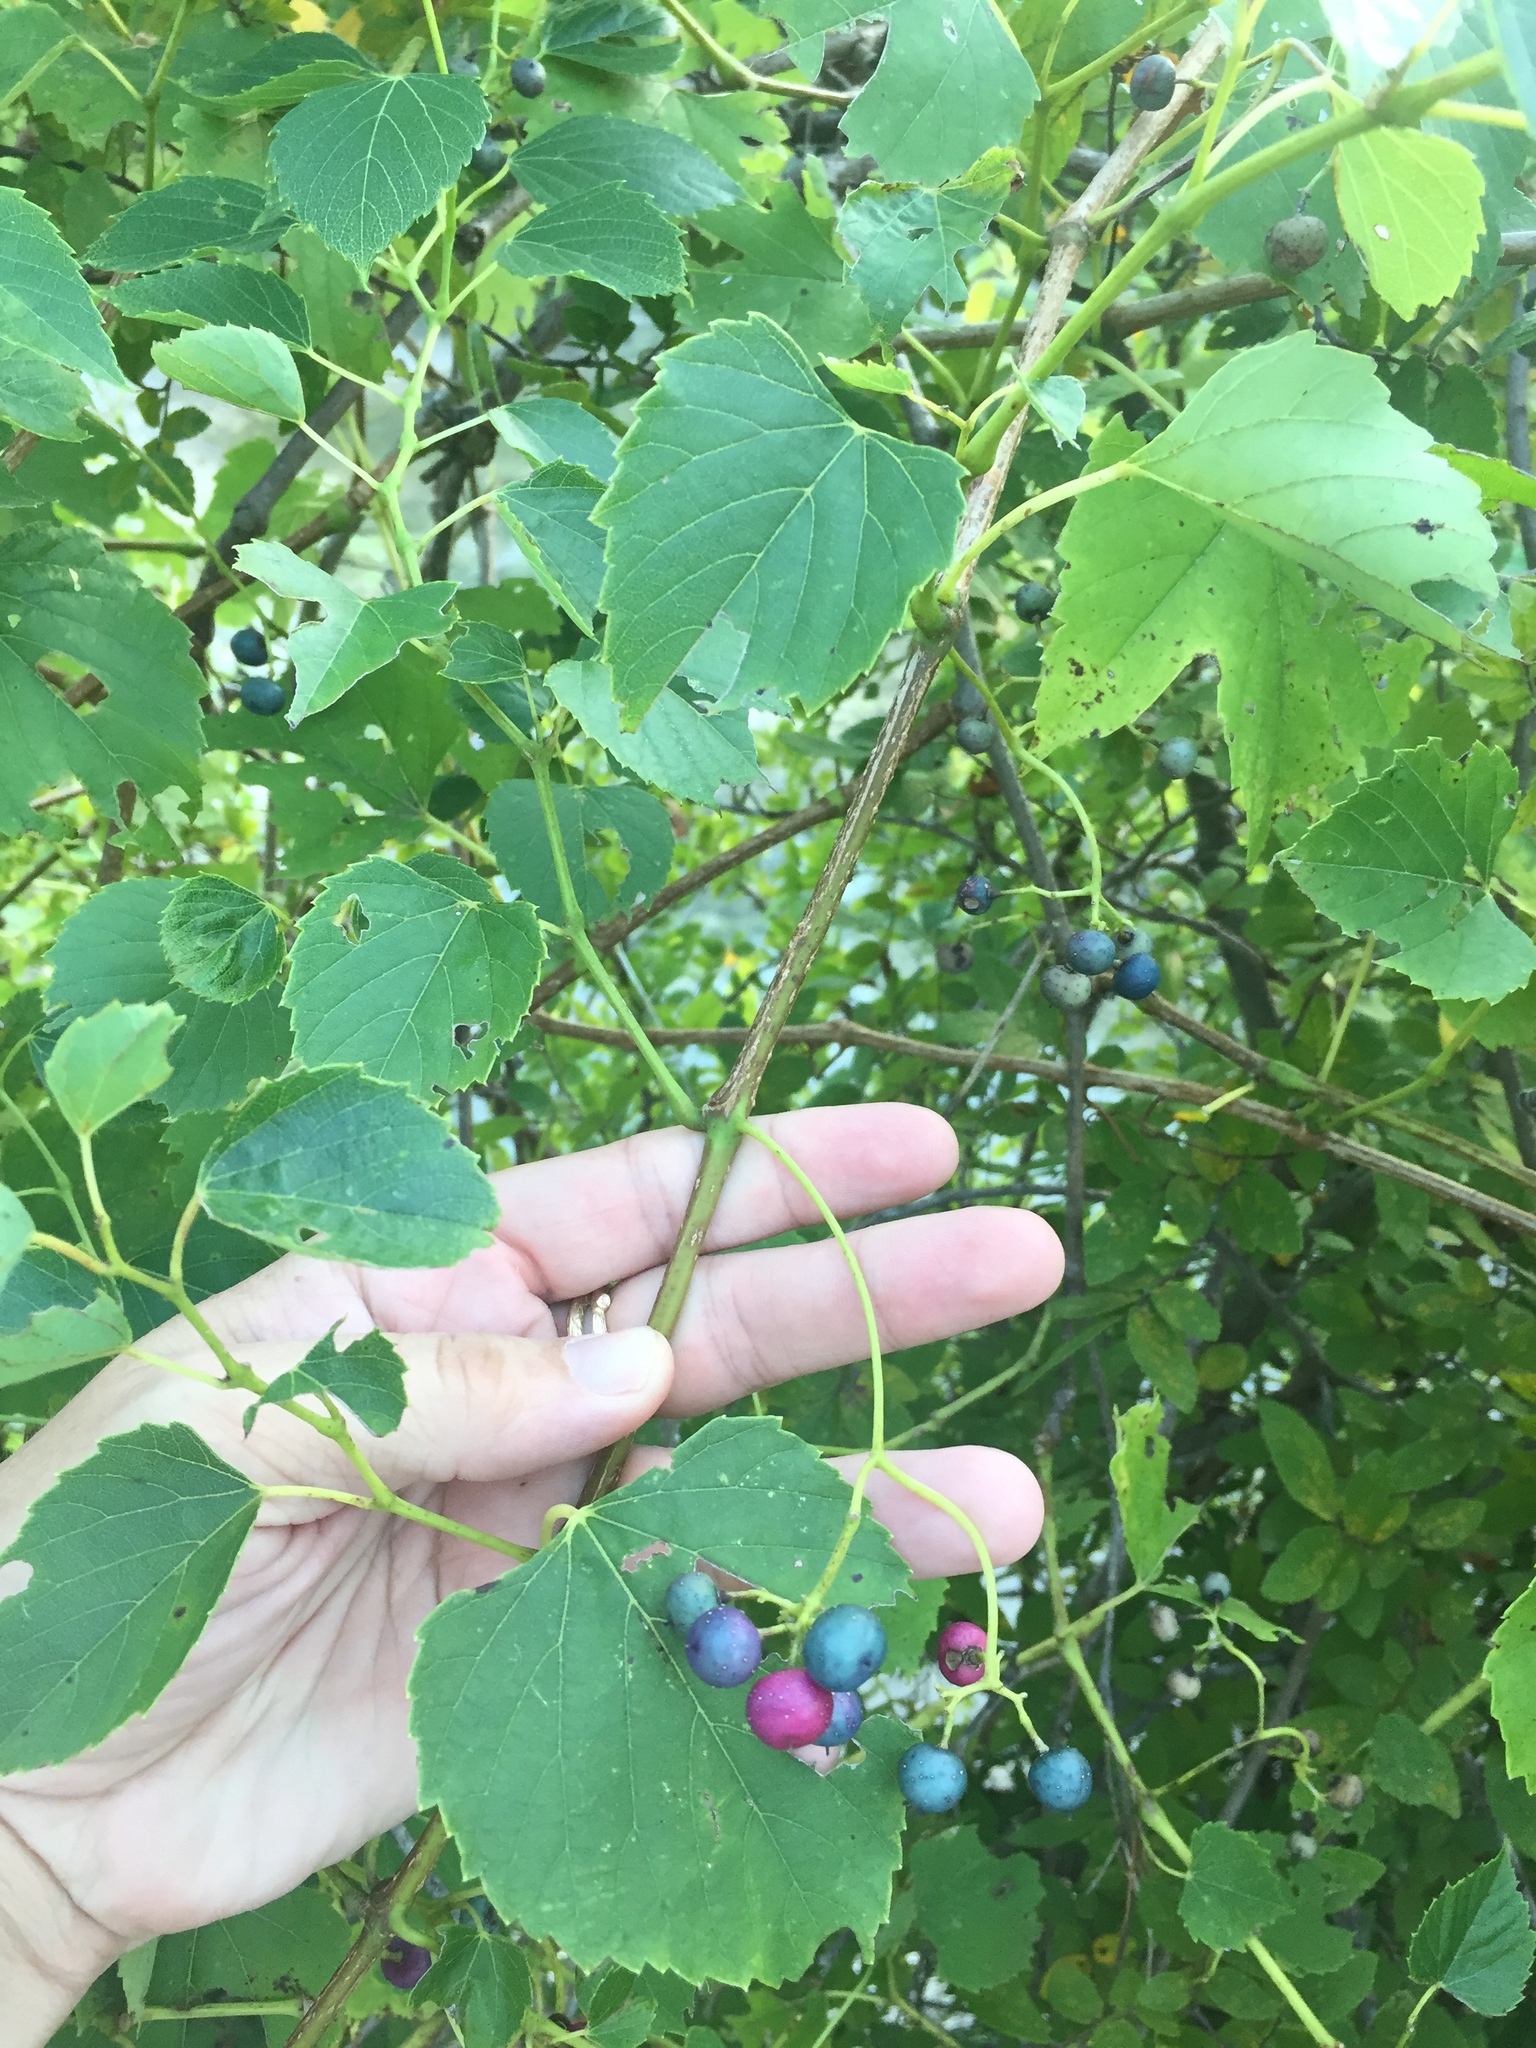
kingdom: Plantae
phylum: Tracheophyta
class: Magnoliopsida
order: Vitales
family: Vitaceae
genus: Ampelopsis
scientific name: Ampelopsis cordata
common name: Heart-leaf ampelopsis
